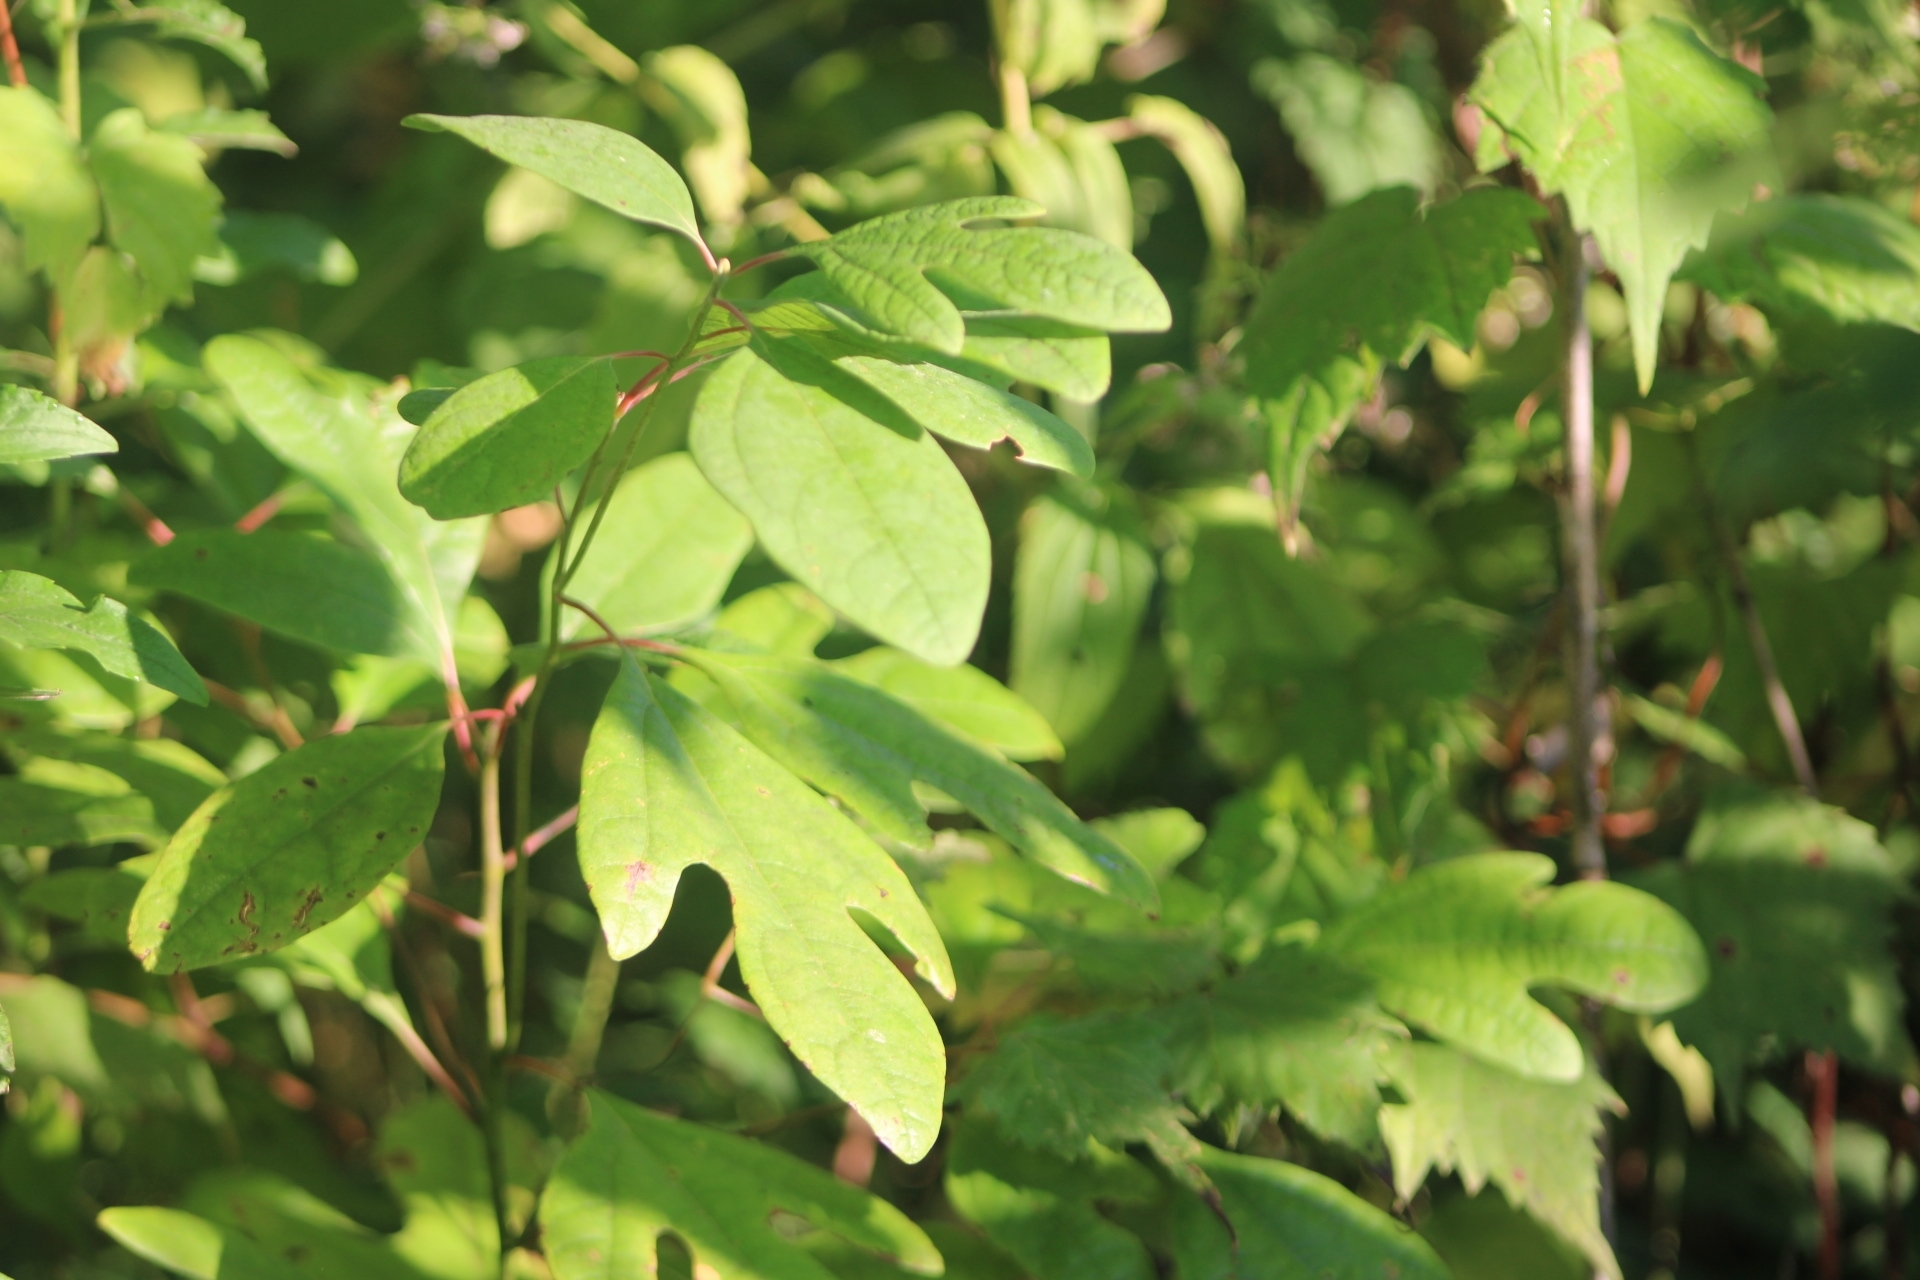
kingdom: Plantae
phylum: Tracheophyta
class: Magnoliopsida
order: Laurales
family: Lauraceae
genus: Sassafras
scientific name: Sassafras albidum
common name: Sassafras
